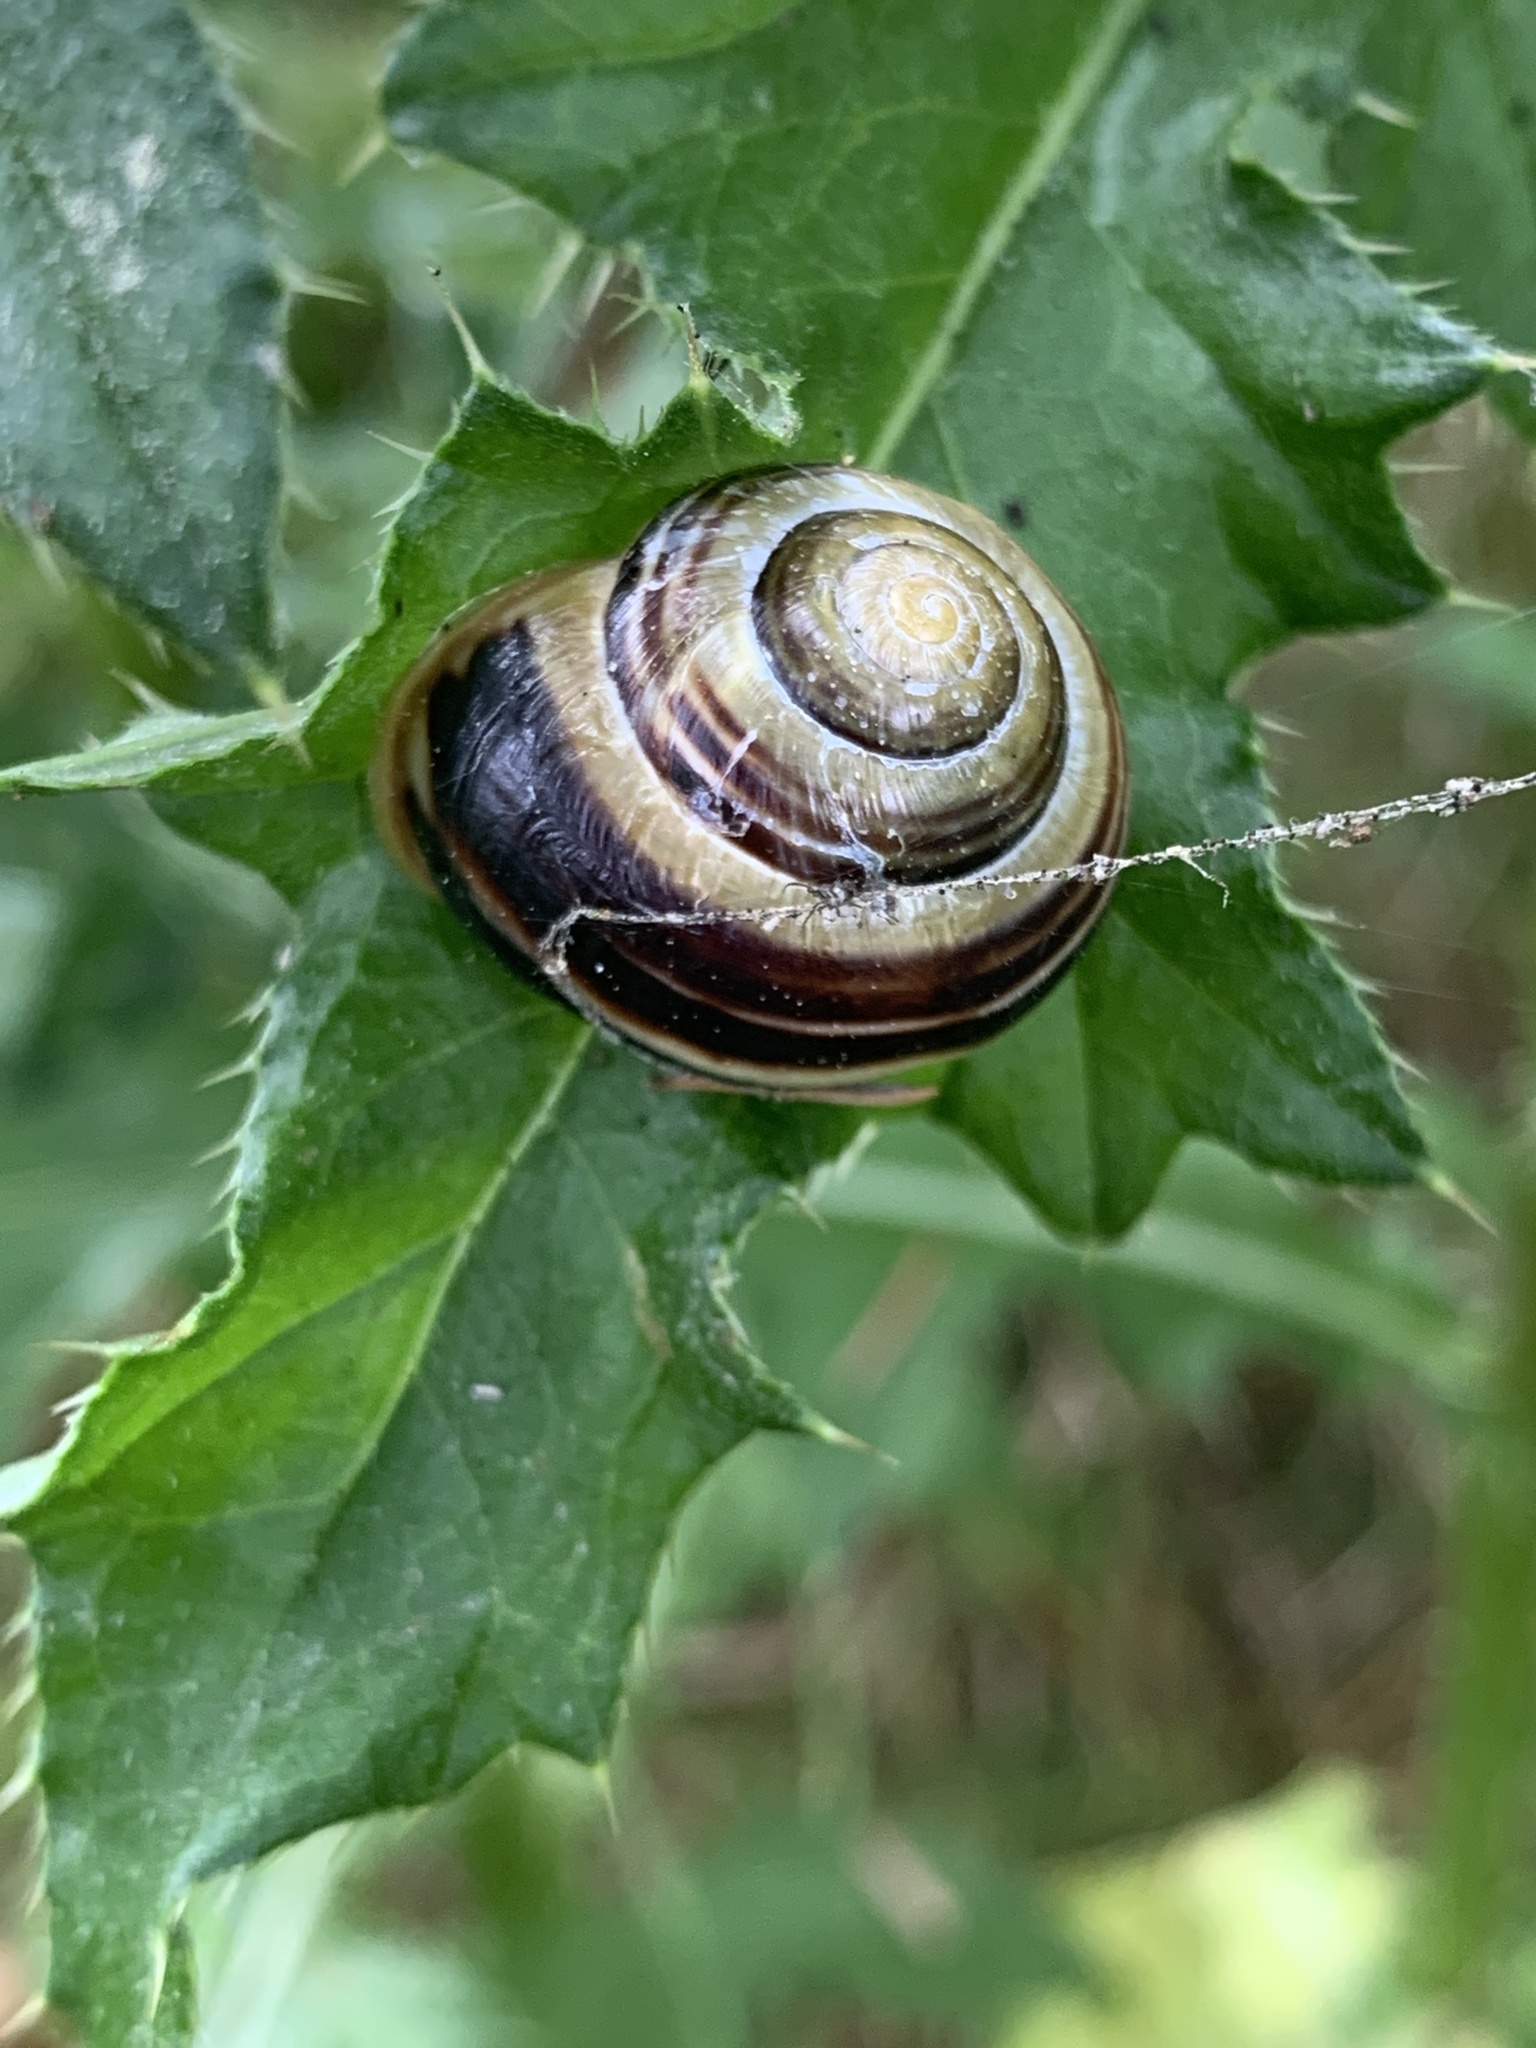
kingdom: Animalia
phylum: Mollusca
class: Gastropoda
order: Stylommatophora
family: Helicidae
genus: Cepaea
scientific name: Cepaea hortensis
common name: White-lip gardensnail
